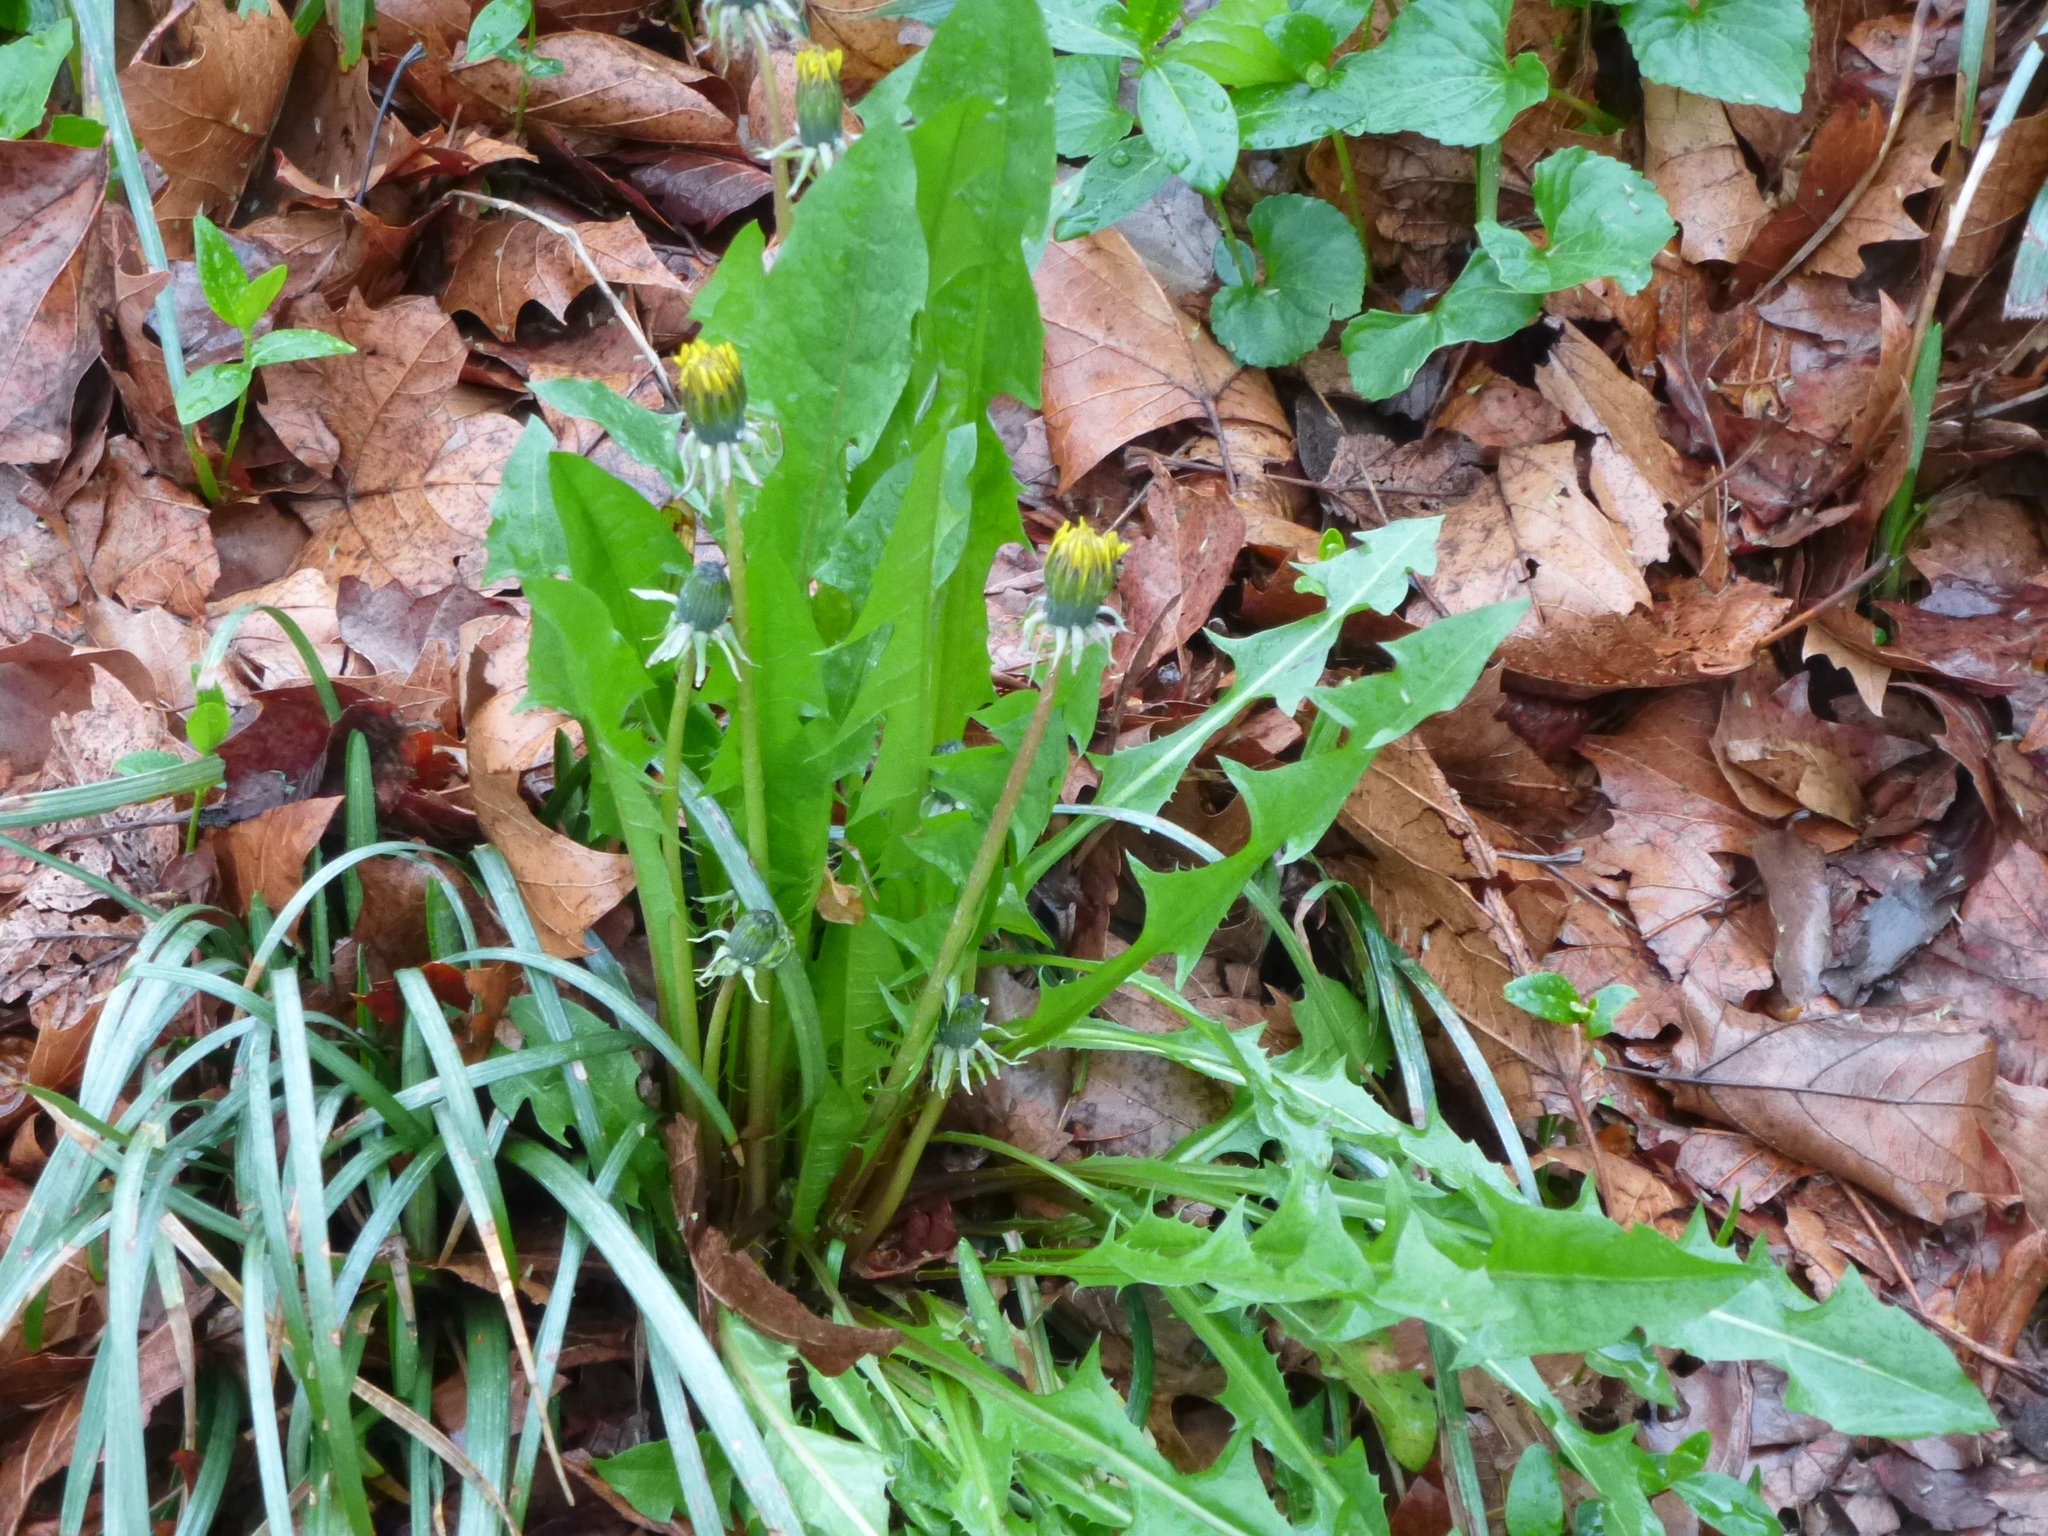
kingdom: Plantae
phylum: Tracheophyta
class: Magnoliopsida
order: Asterales
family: Asteraceae
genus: Taraxacum
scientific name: Taraxacum officinale
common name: Common dandelion
